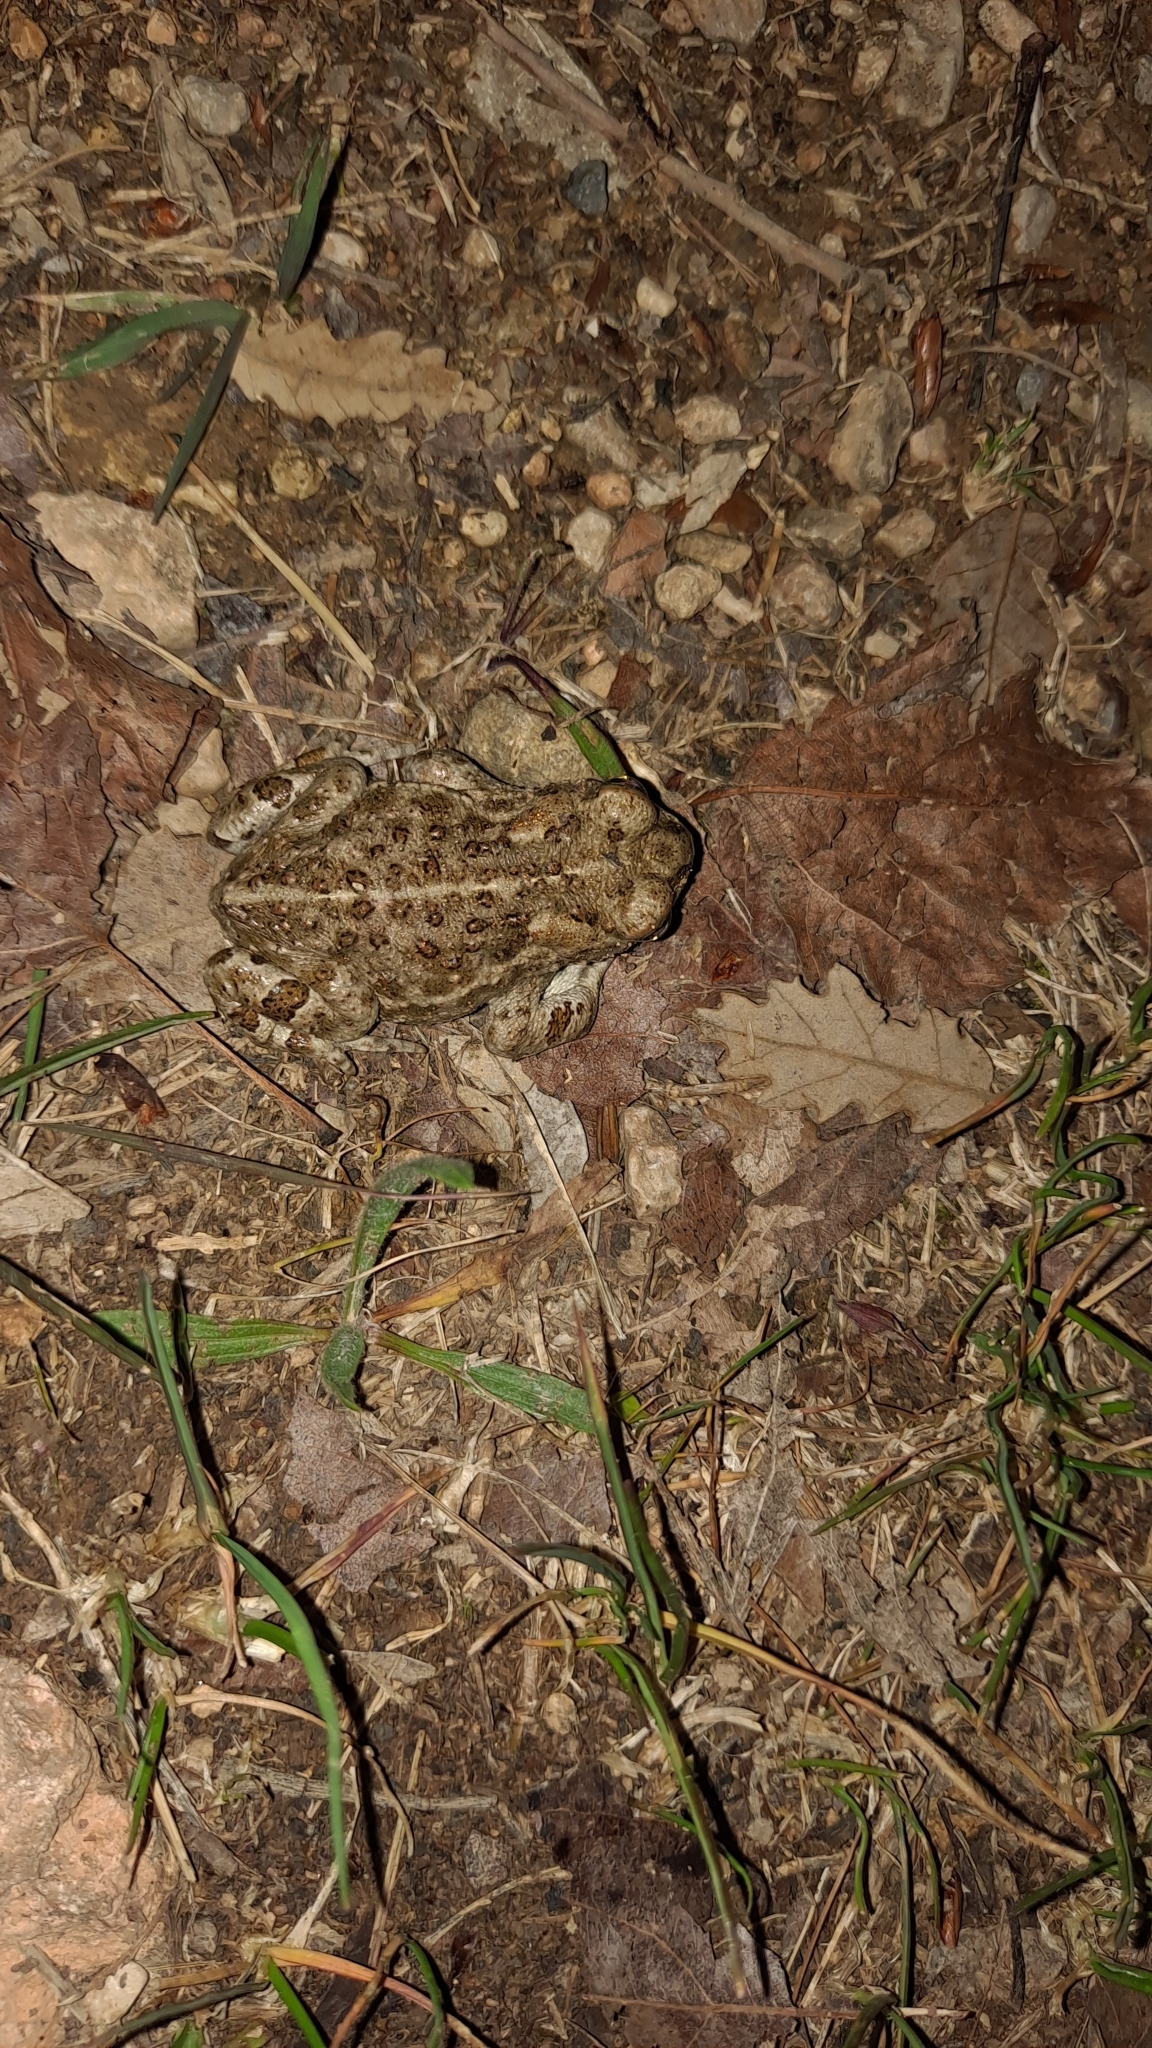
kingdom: Animalia
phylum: Chordata
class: Amphibia
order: Anura
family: Bufonidae
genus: Epidalea
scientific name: Epidalea calamita
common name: Natterjack toad
